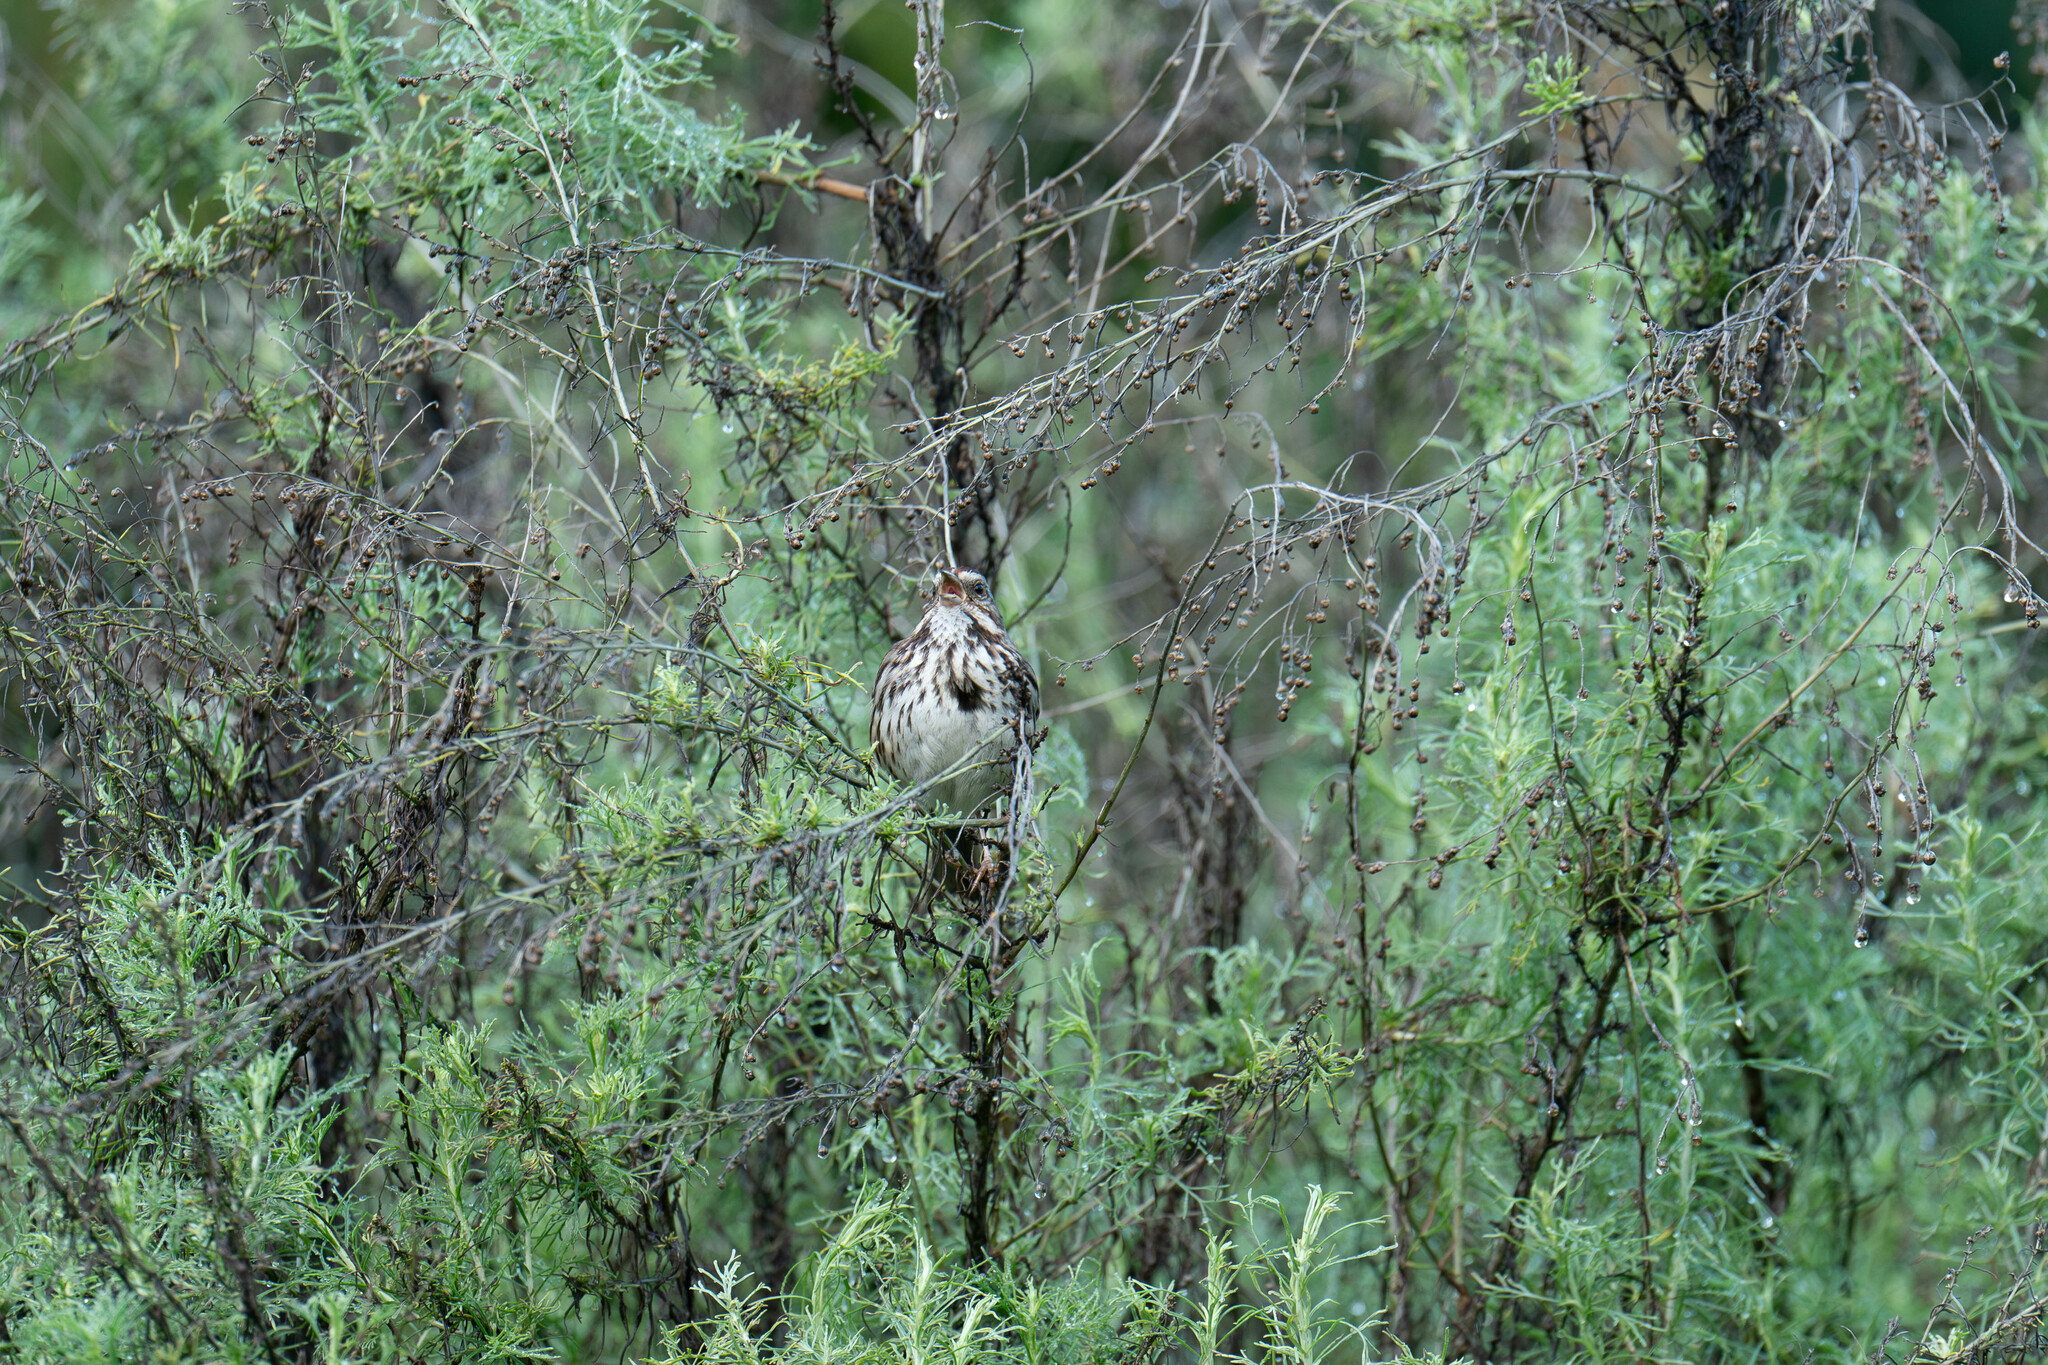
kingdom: Animalia
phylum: Chordata
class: Aves
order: Passeriformes
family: Passerellidae
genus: Melospiza
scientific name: Melospiza melodia
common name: Song sparrow
